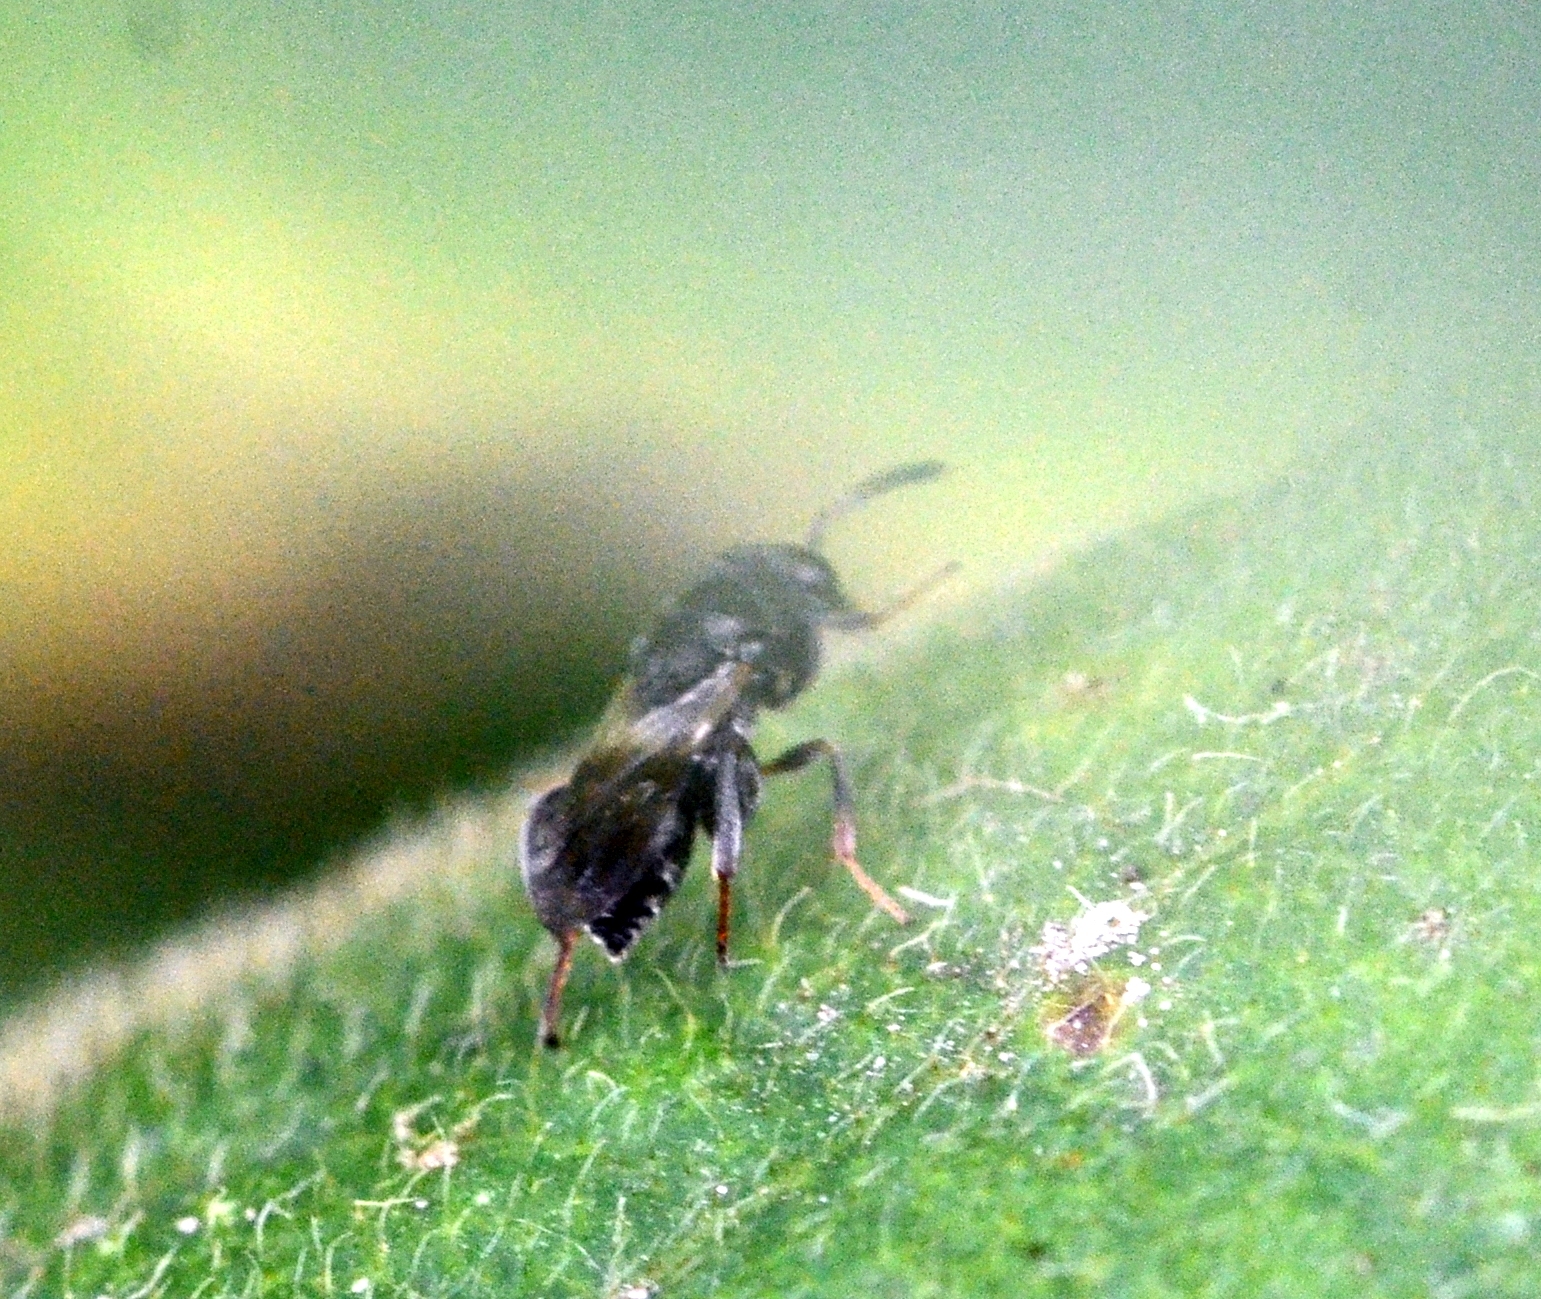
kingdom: Animalia
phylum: Arthropoda
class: Insecta
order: Hymenoptera
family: Chalcididae
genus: Haltichella
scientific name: Haltichella rufipes
